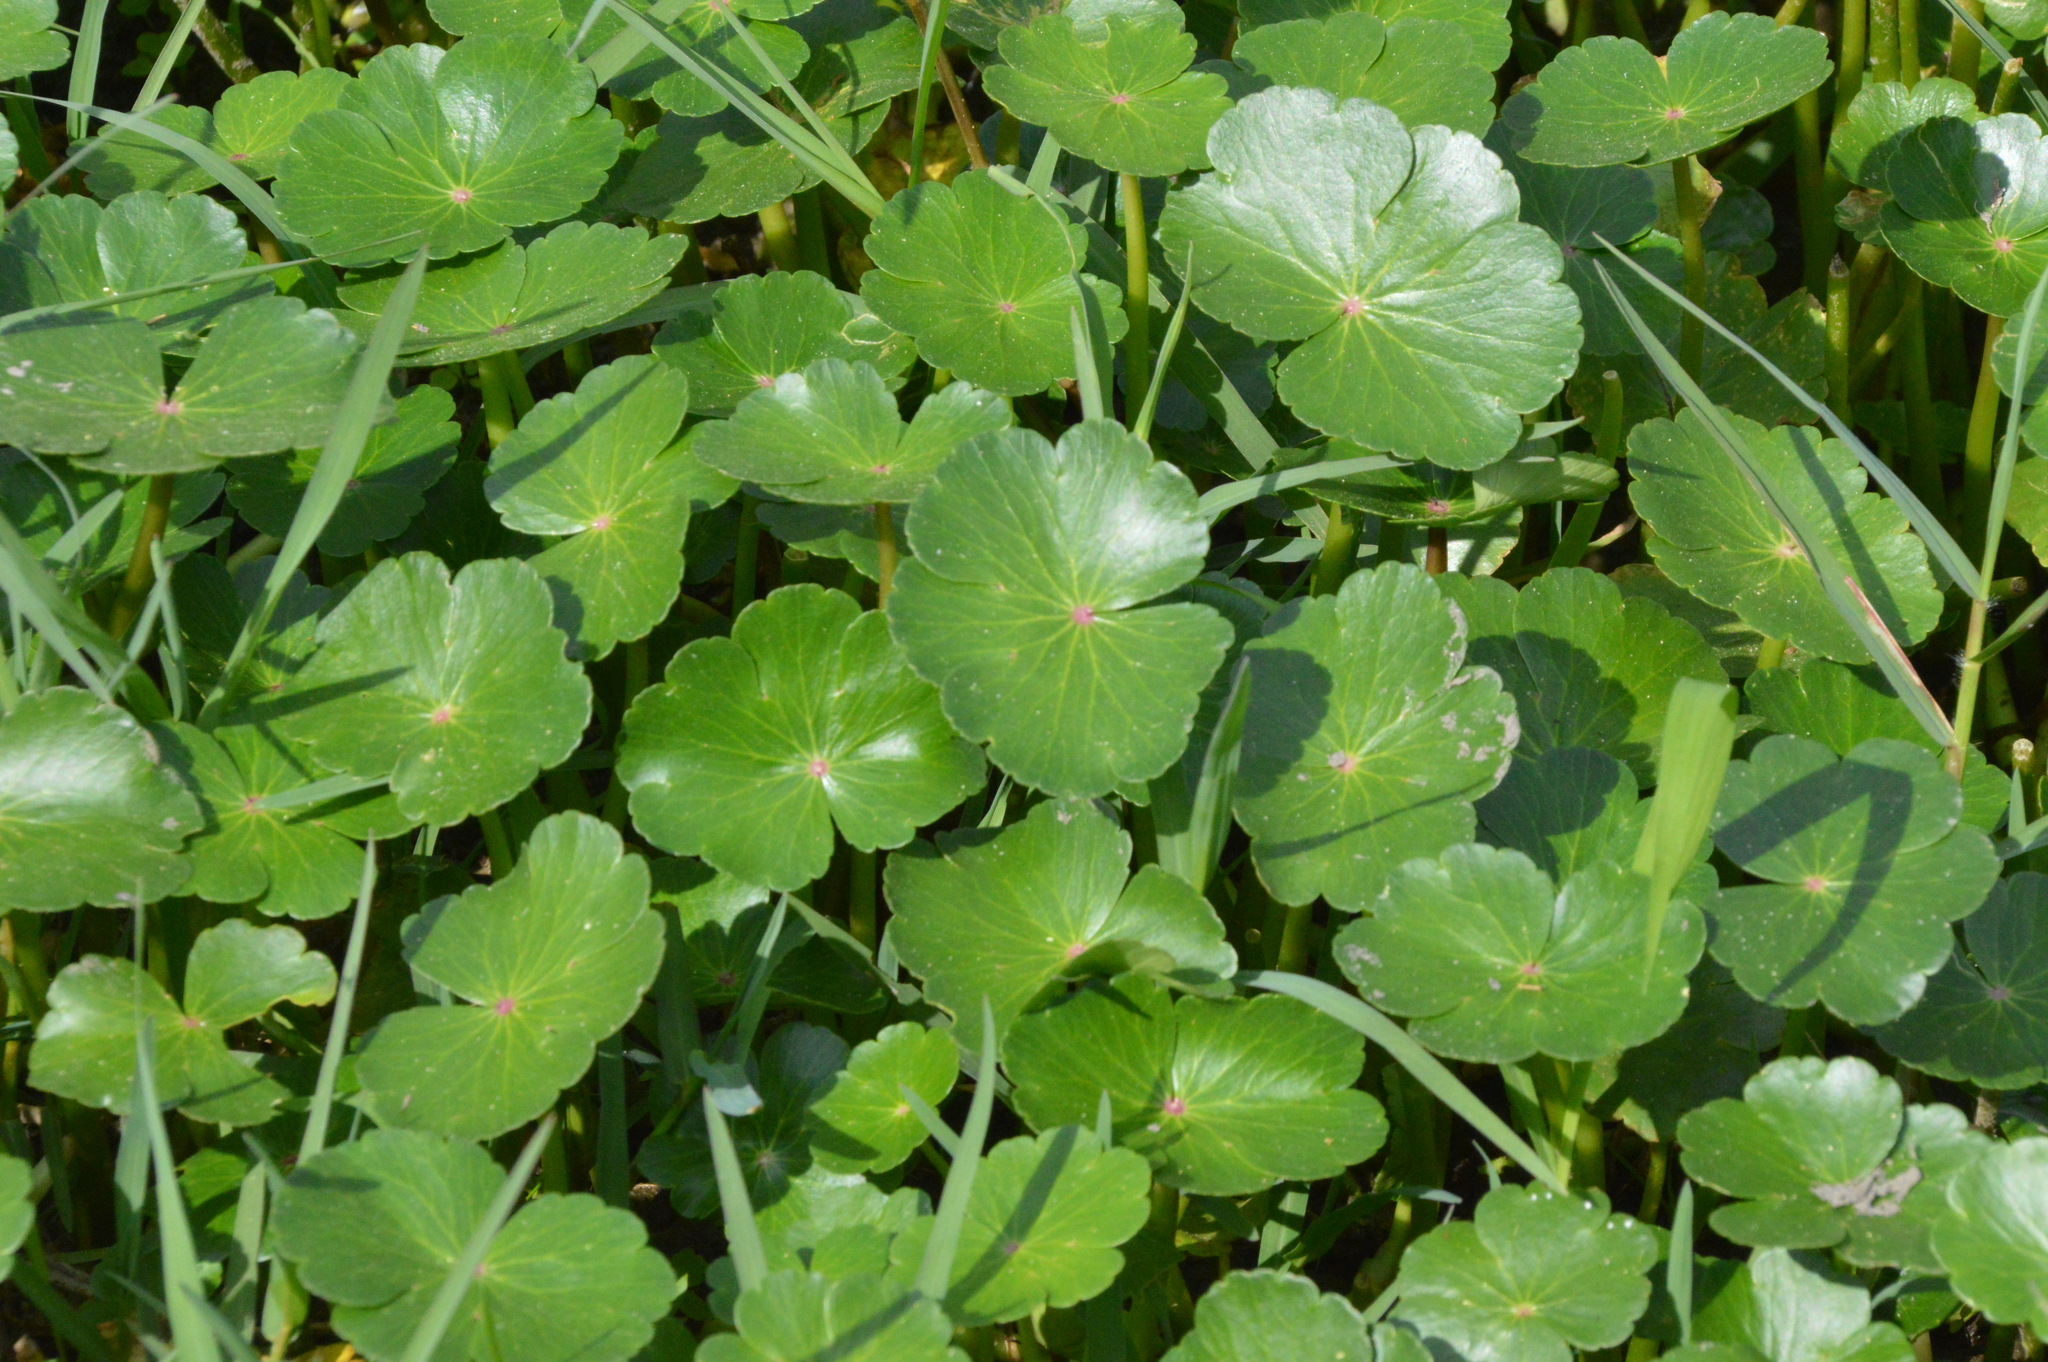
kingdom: Plantae
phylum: Tracheophyta
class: Magnoliopsida
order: Apiales
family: Araliaceae
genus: Hydrocotyle
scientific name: Hydrocotyle ranunculoides
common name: Floating pennywort
